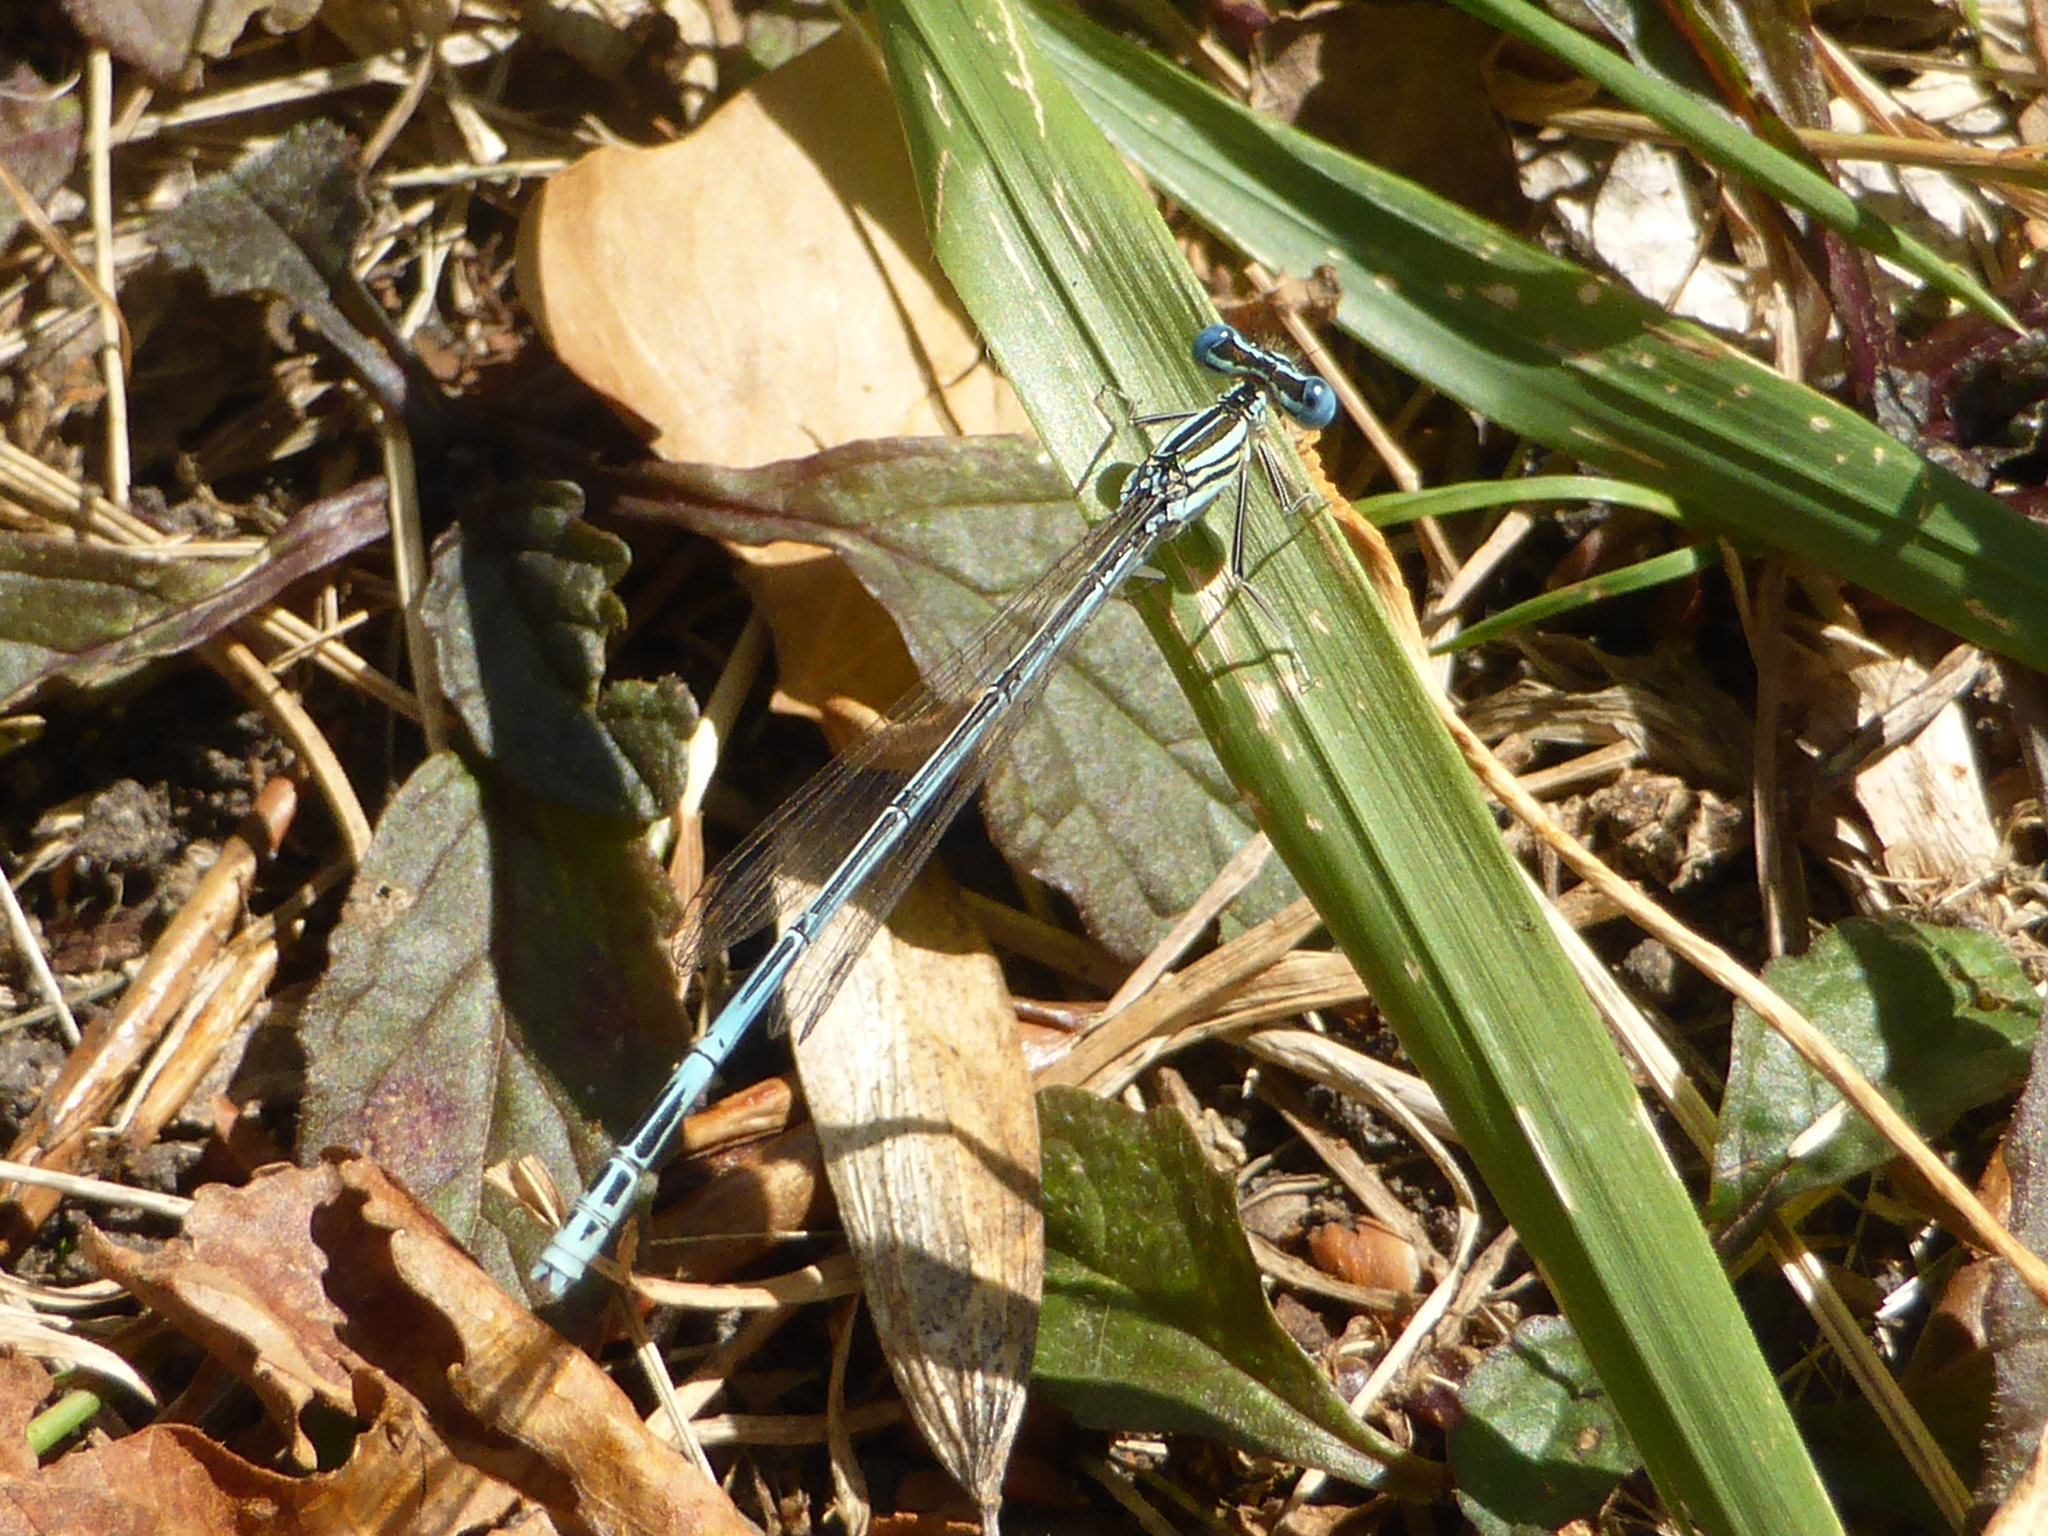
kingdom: Animalia
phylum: Arthropoda
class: Insecta
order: Odonata
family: Platycnemididae
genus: Platycnemis
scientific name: Platycnemis pennipes
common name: White-legged damselfly
